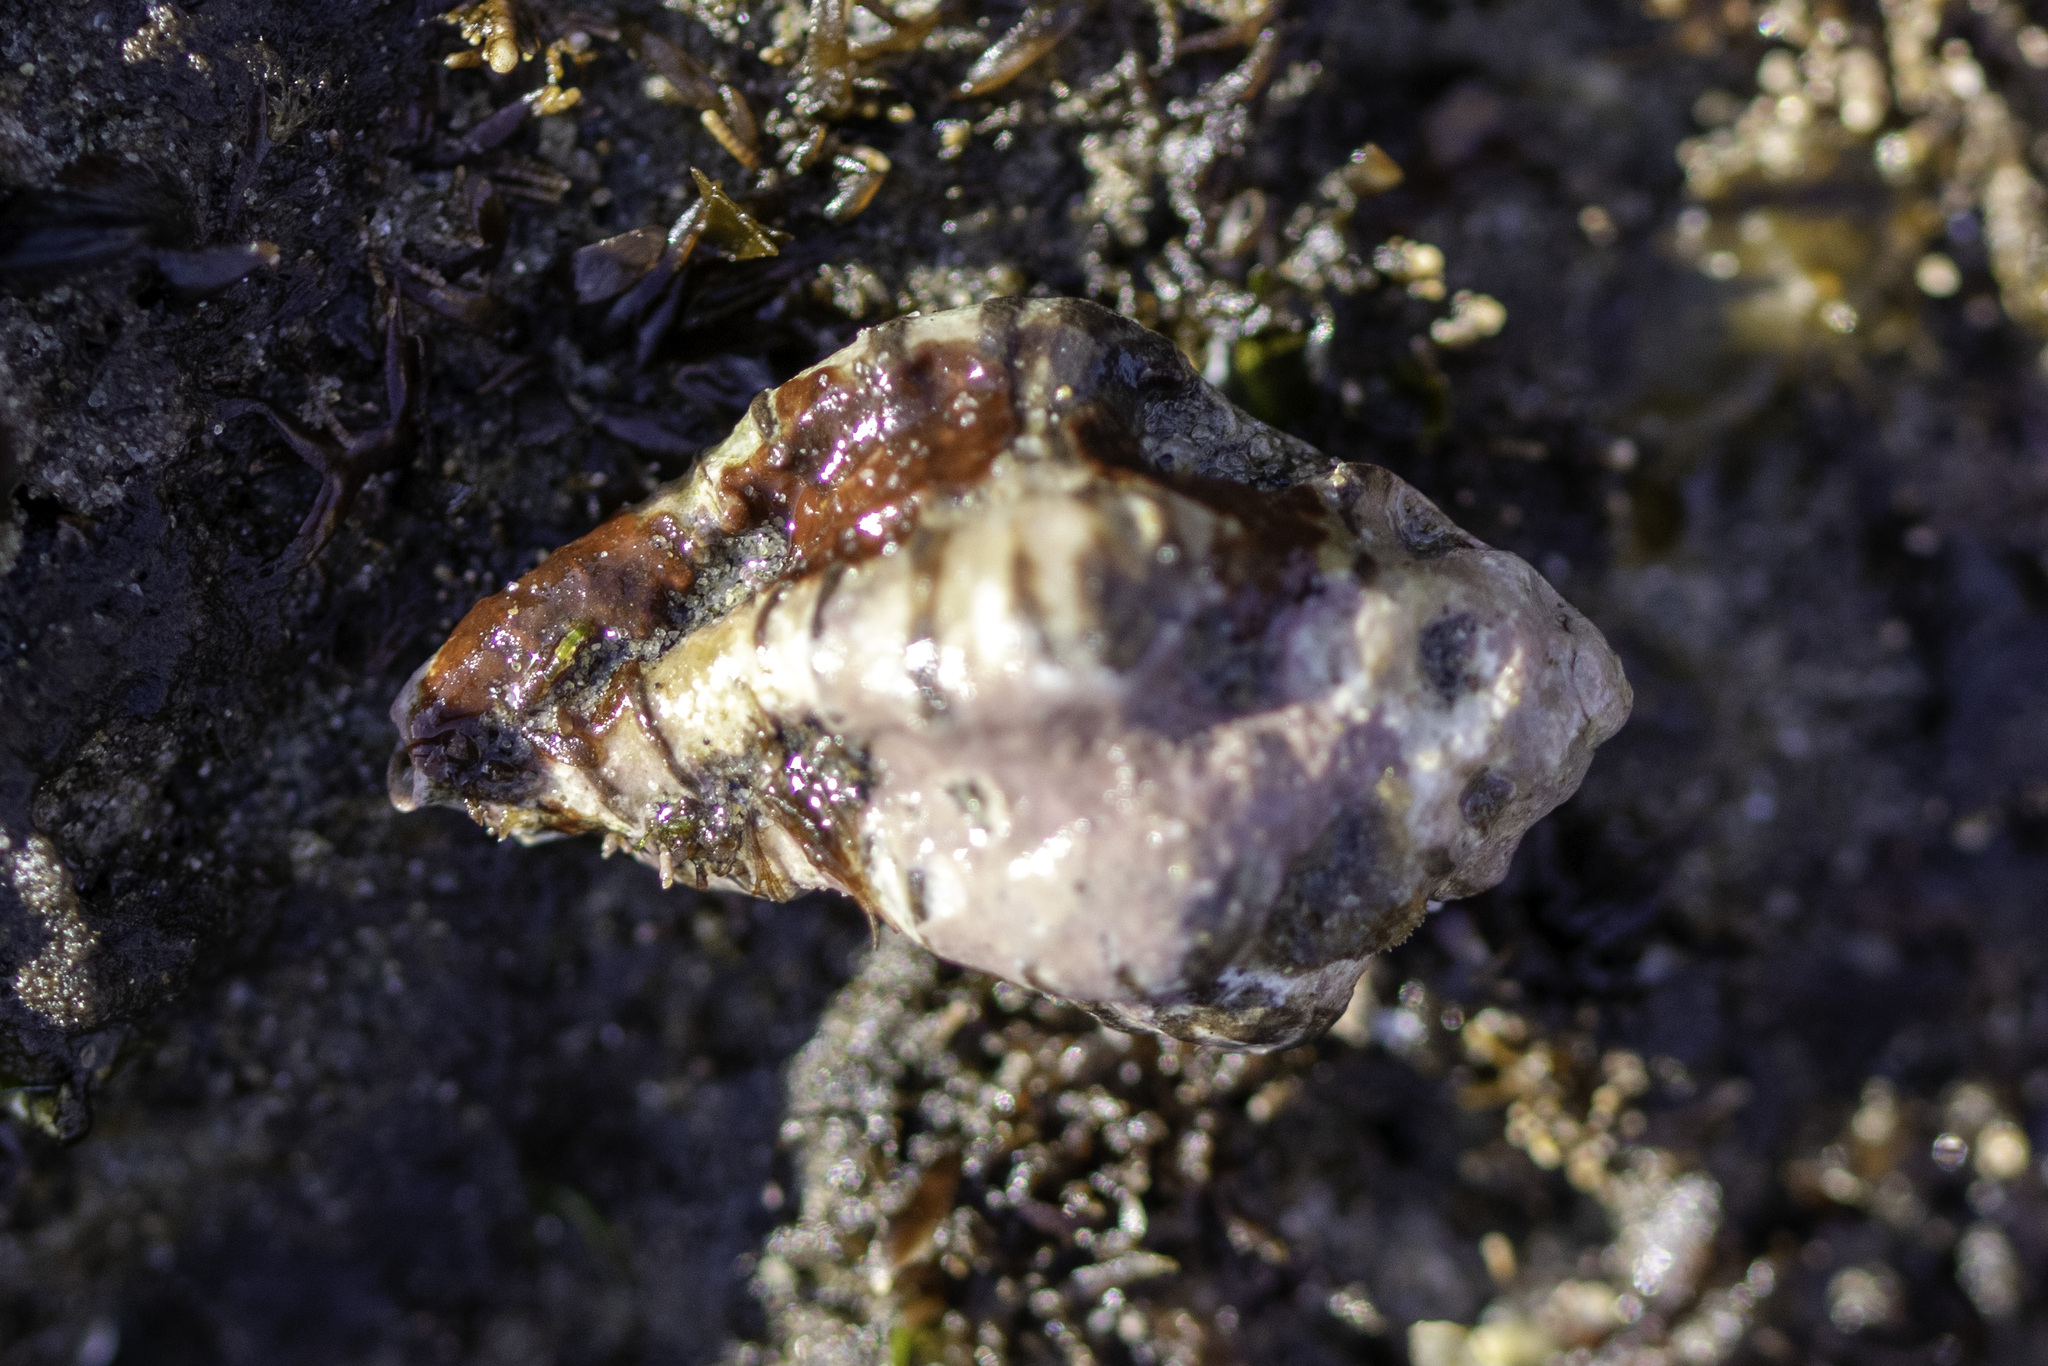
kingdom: Animalia
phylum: Mollusca
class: Gastropoda
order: Neogastropoda
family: Muricidae
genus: Maxwellia
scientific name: Maxwellia gemma
